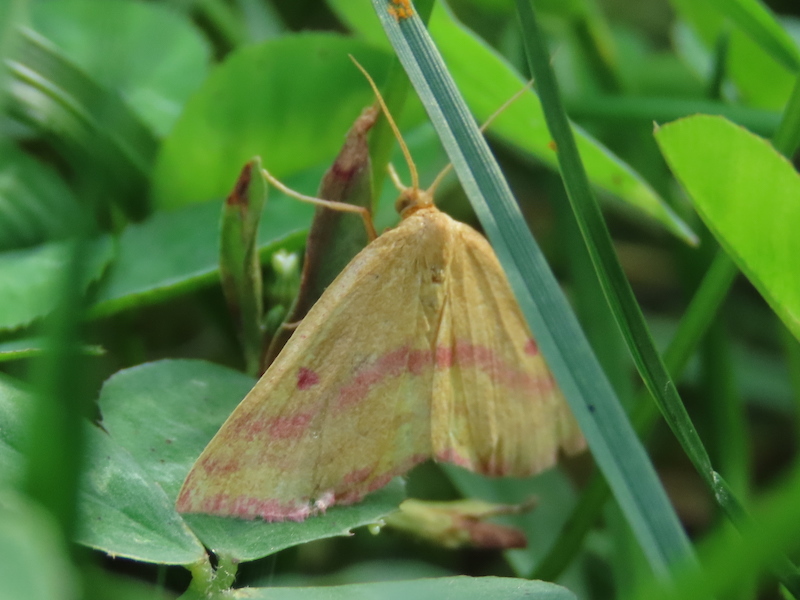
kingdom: Animalia
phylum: Arthropoda
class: Insecta
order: Lepidoptera
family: Geometridae
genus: Haematopis
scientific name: Haematopis grataria
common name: Chickweed geometer
